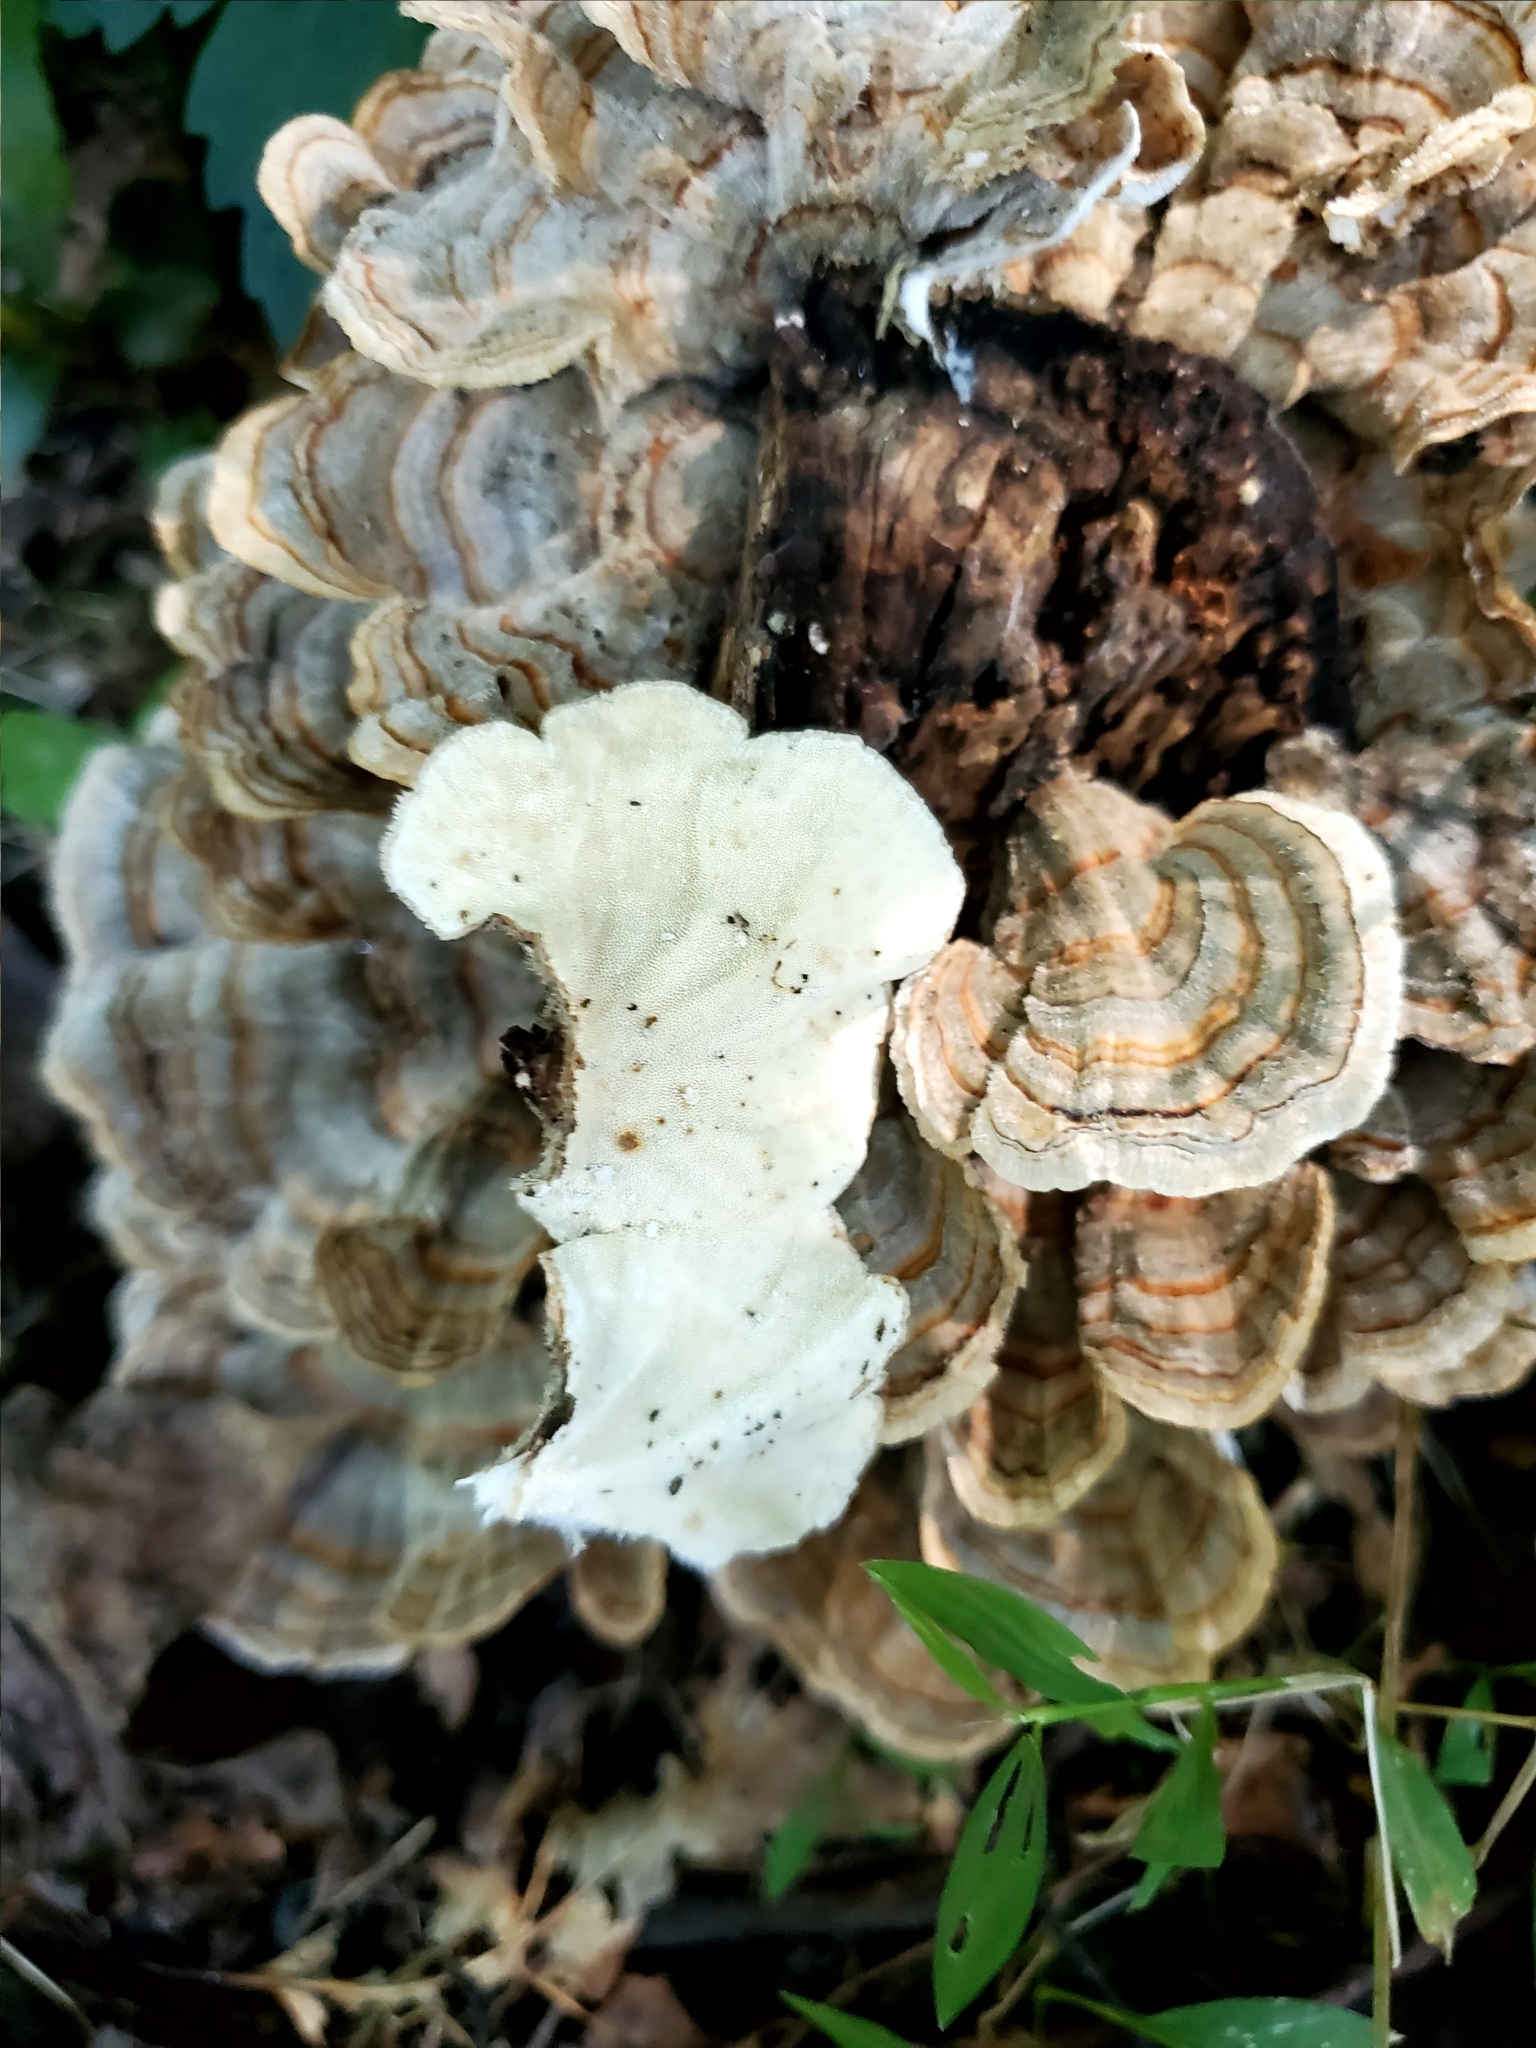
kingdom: Fungi
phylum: Basidiomycota
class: Agaricomycetes
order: Polyporales
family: Polyporaceae
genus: Trametes
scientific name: Trametes versicolor
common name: Turkeytail
